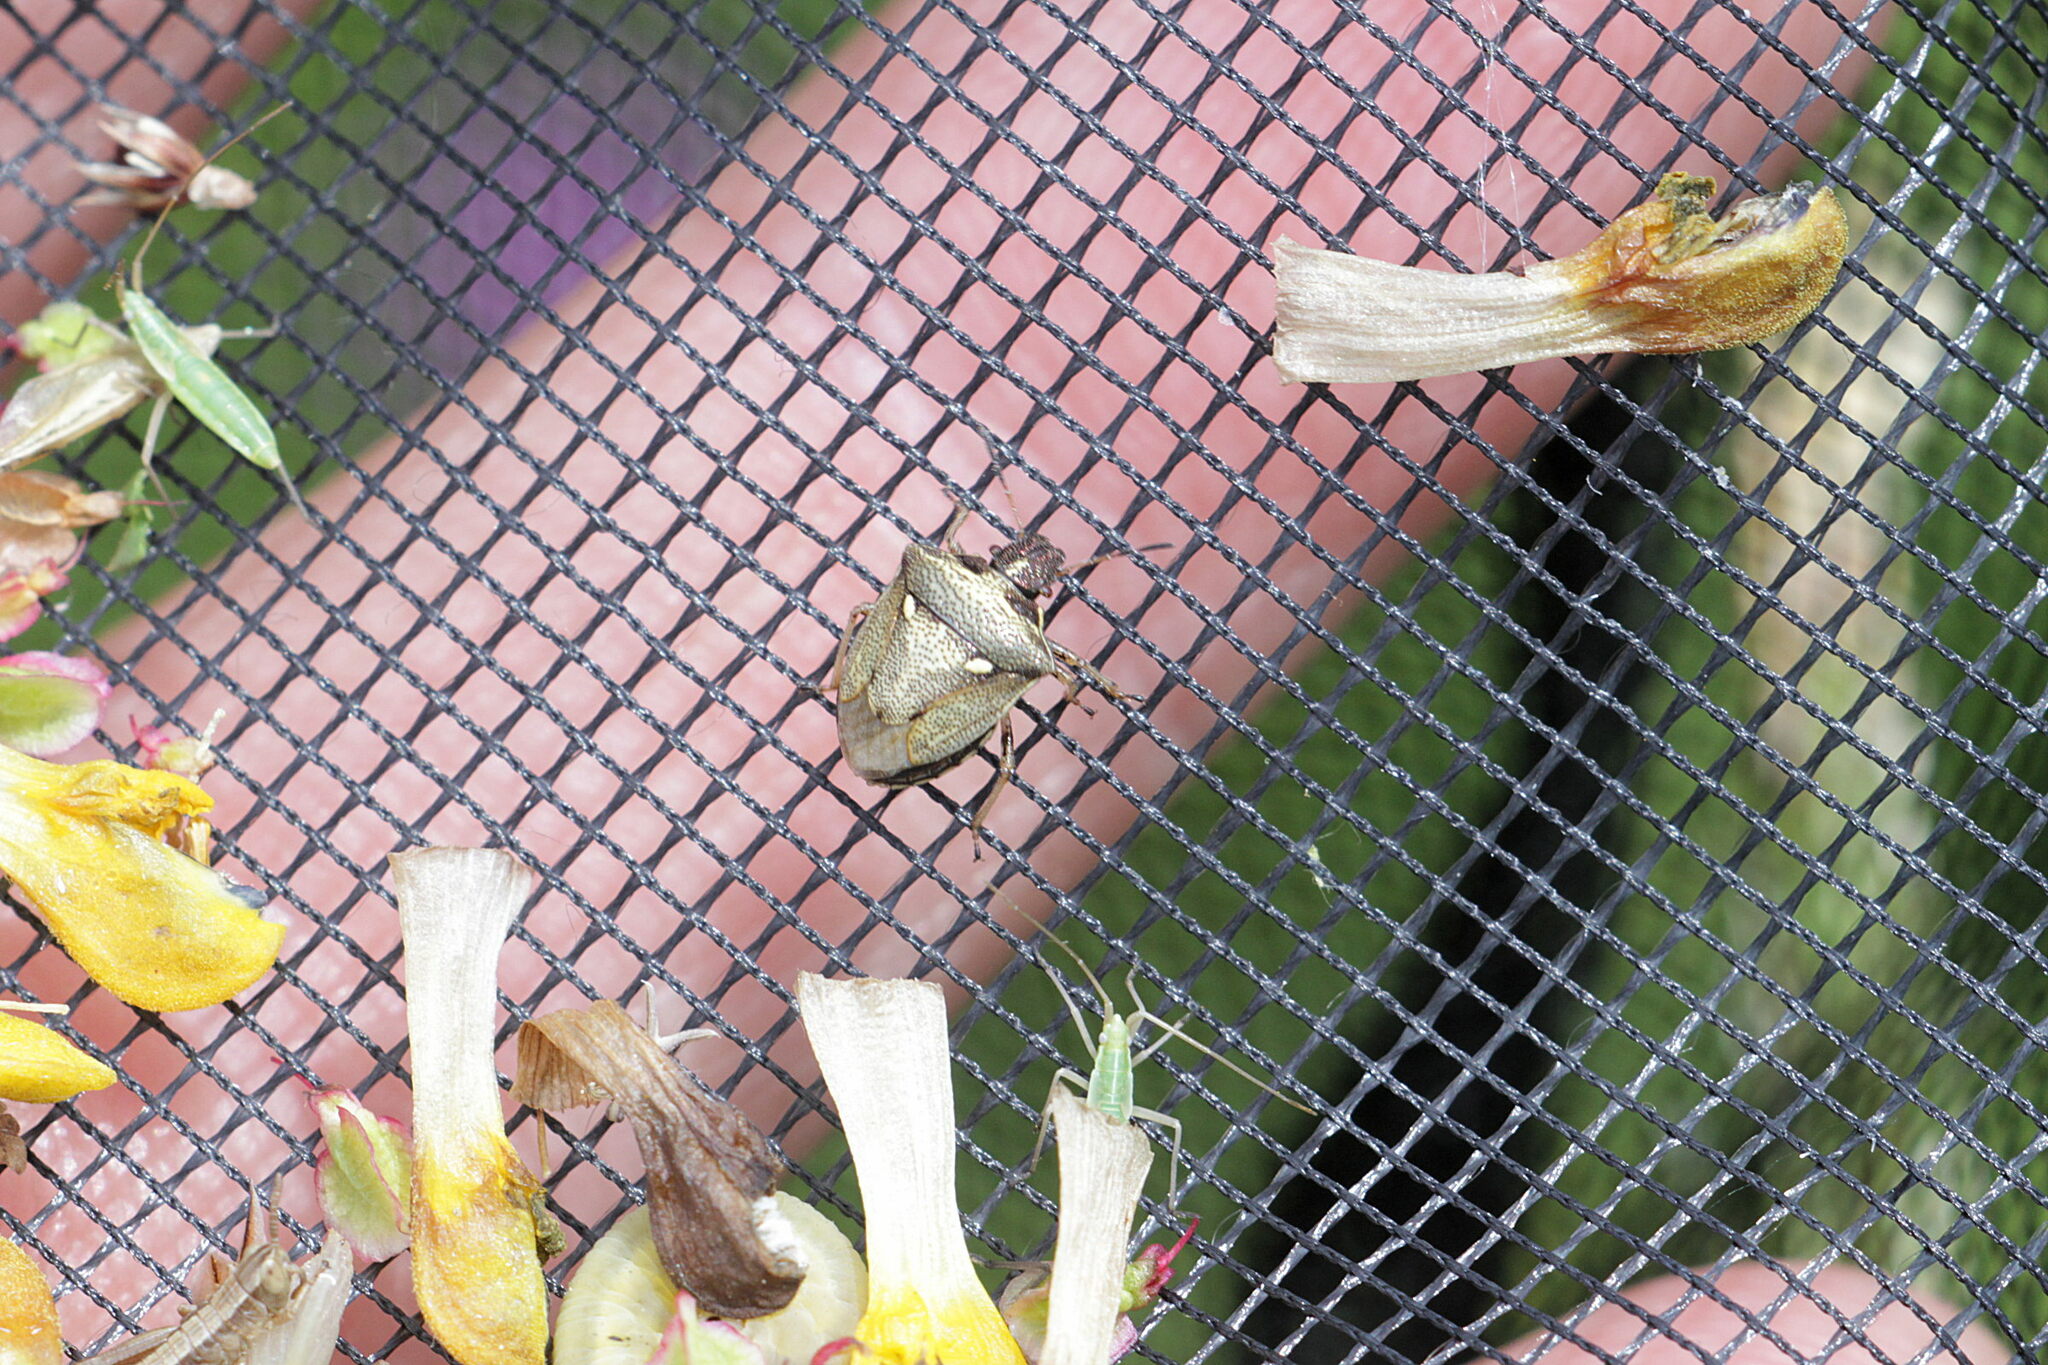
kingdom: Animalia
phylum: Arthropoda
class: Insecta
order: Hemiptera
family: Pentatomidae
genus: Eysarcoris
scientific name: Eysarcoris aeneus
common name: New forest shieldbug
